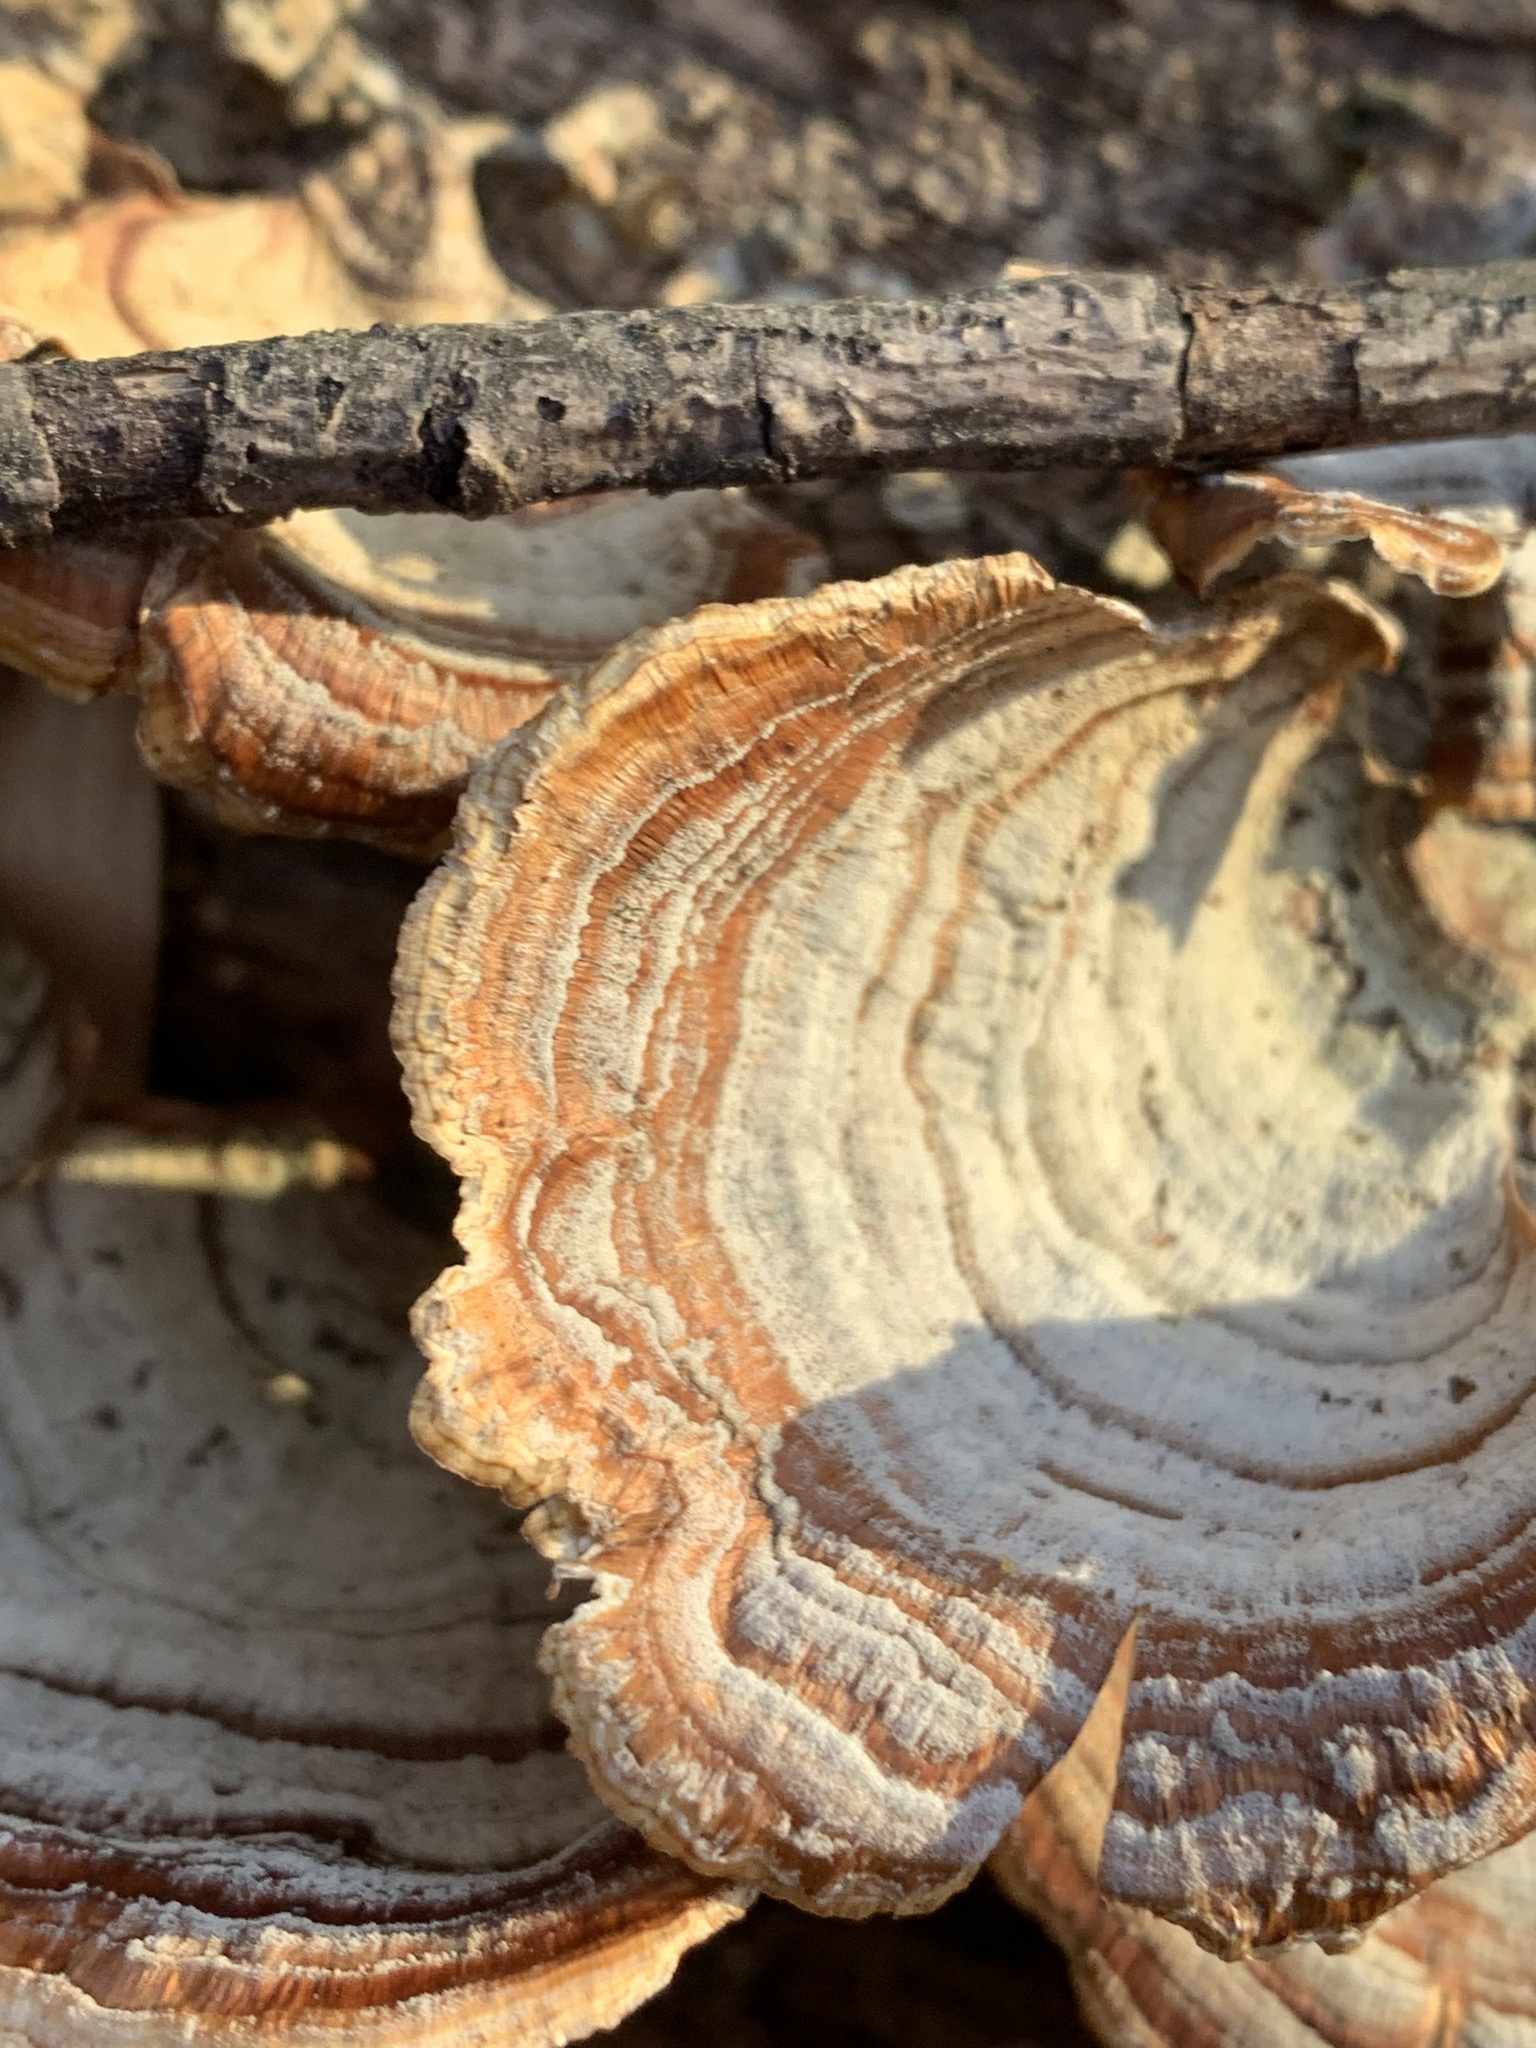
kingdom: Fungi
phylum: Basidiomycota
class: Agaricomycetes
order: Russulales
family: Stereaceae
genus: Stereum
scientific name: Stereum lobatum
